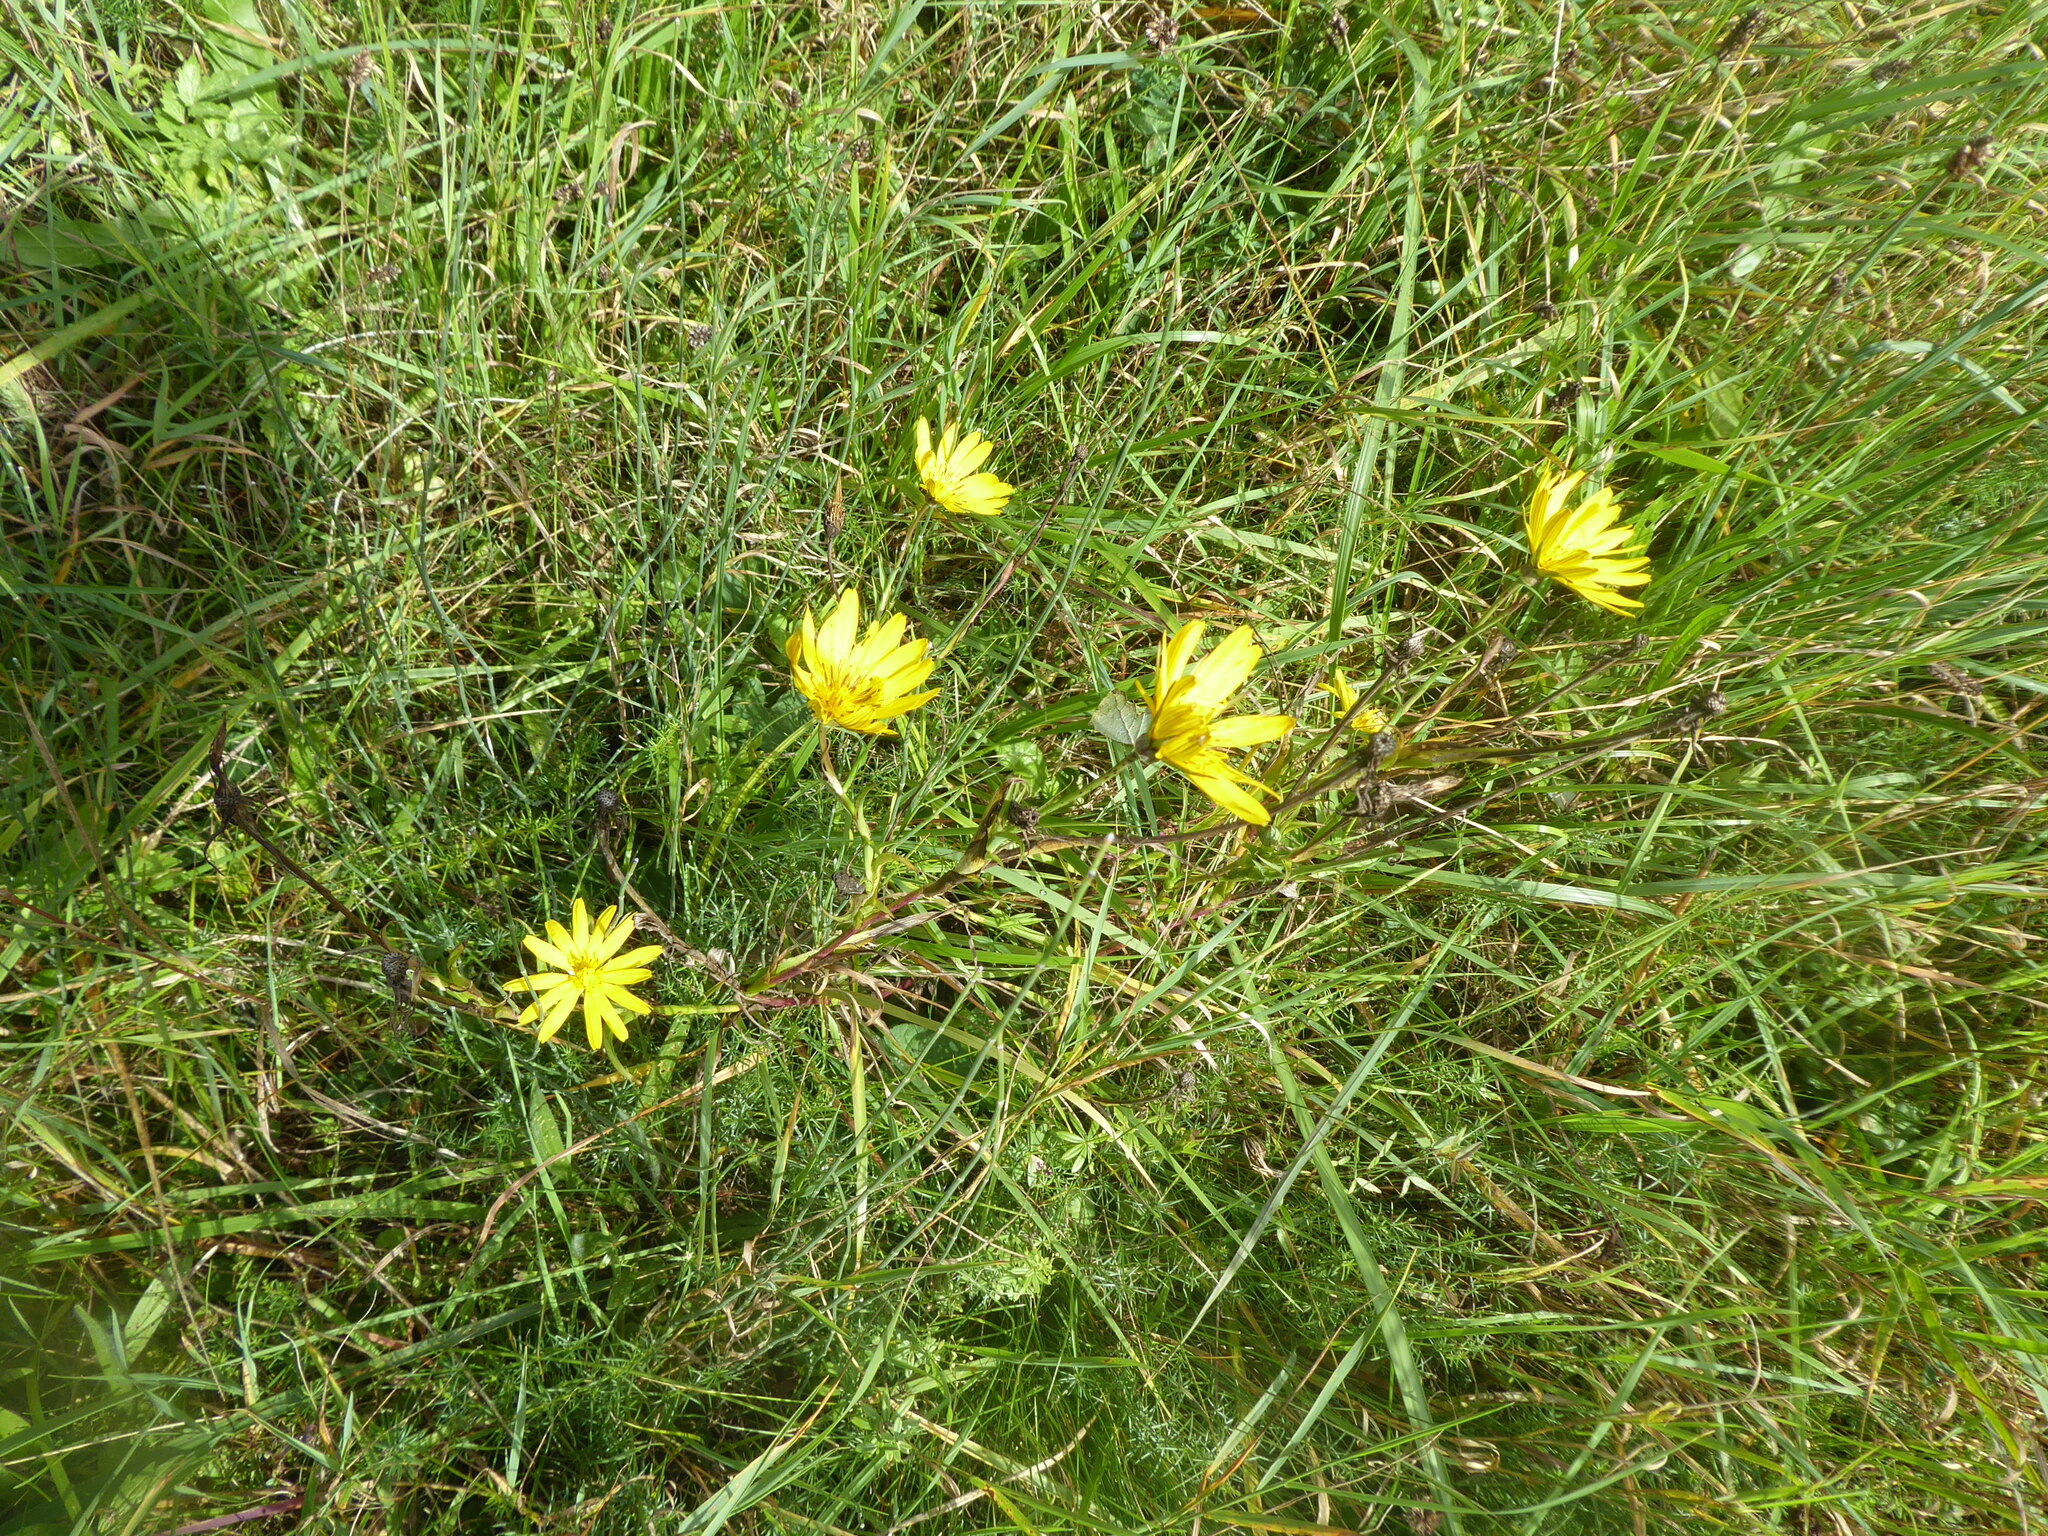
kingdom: Plantae
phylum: Tracheophyta
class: Magnoliopsida
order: Asterales
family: Asteraceae
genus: Tragopogon
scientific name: Tragopogon orientalis
